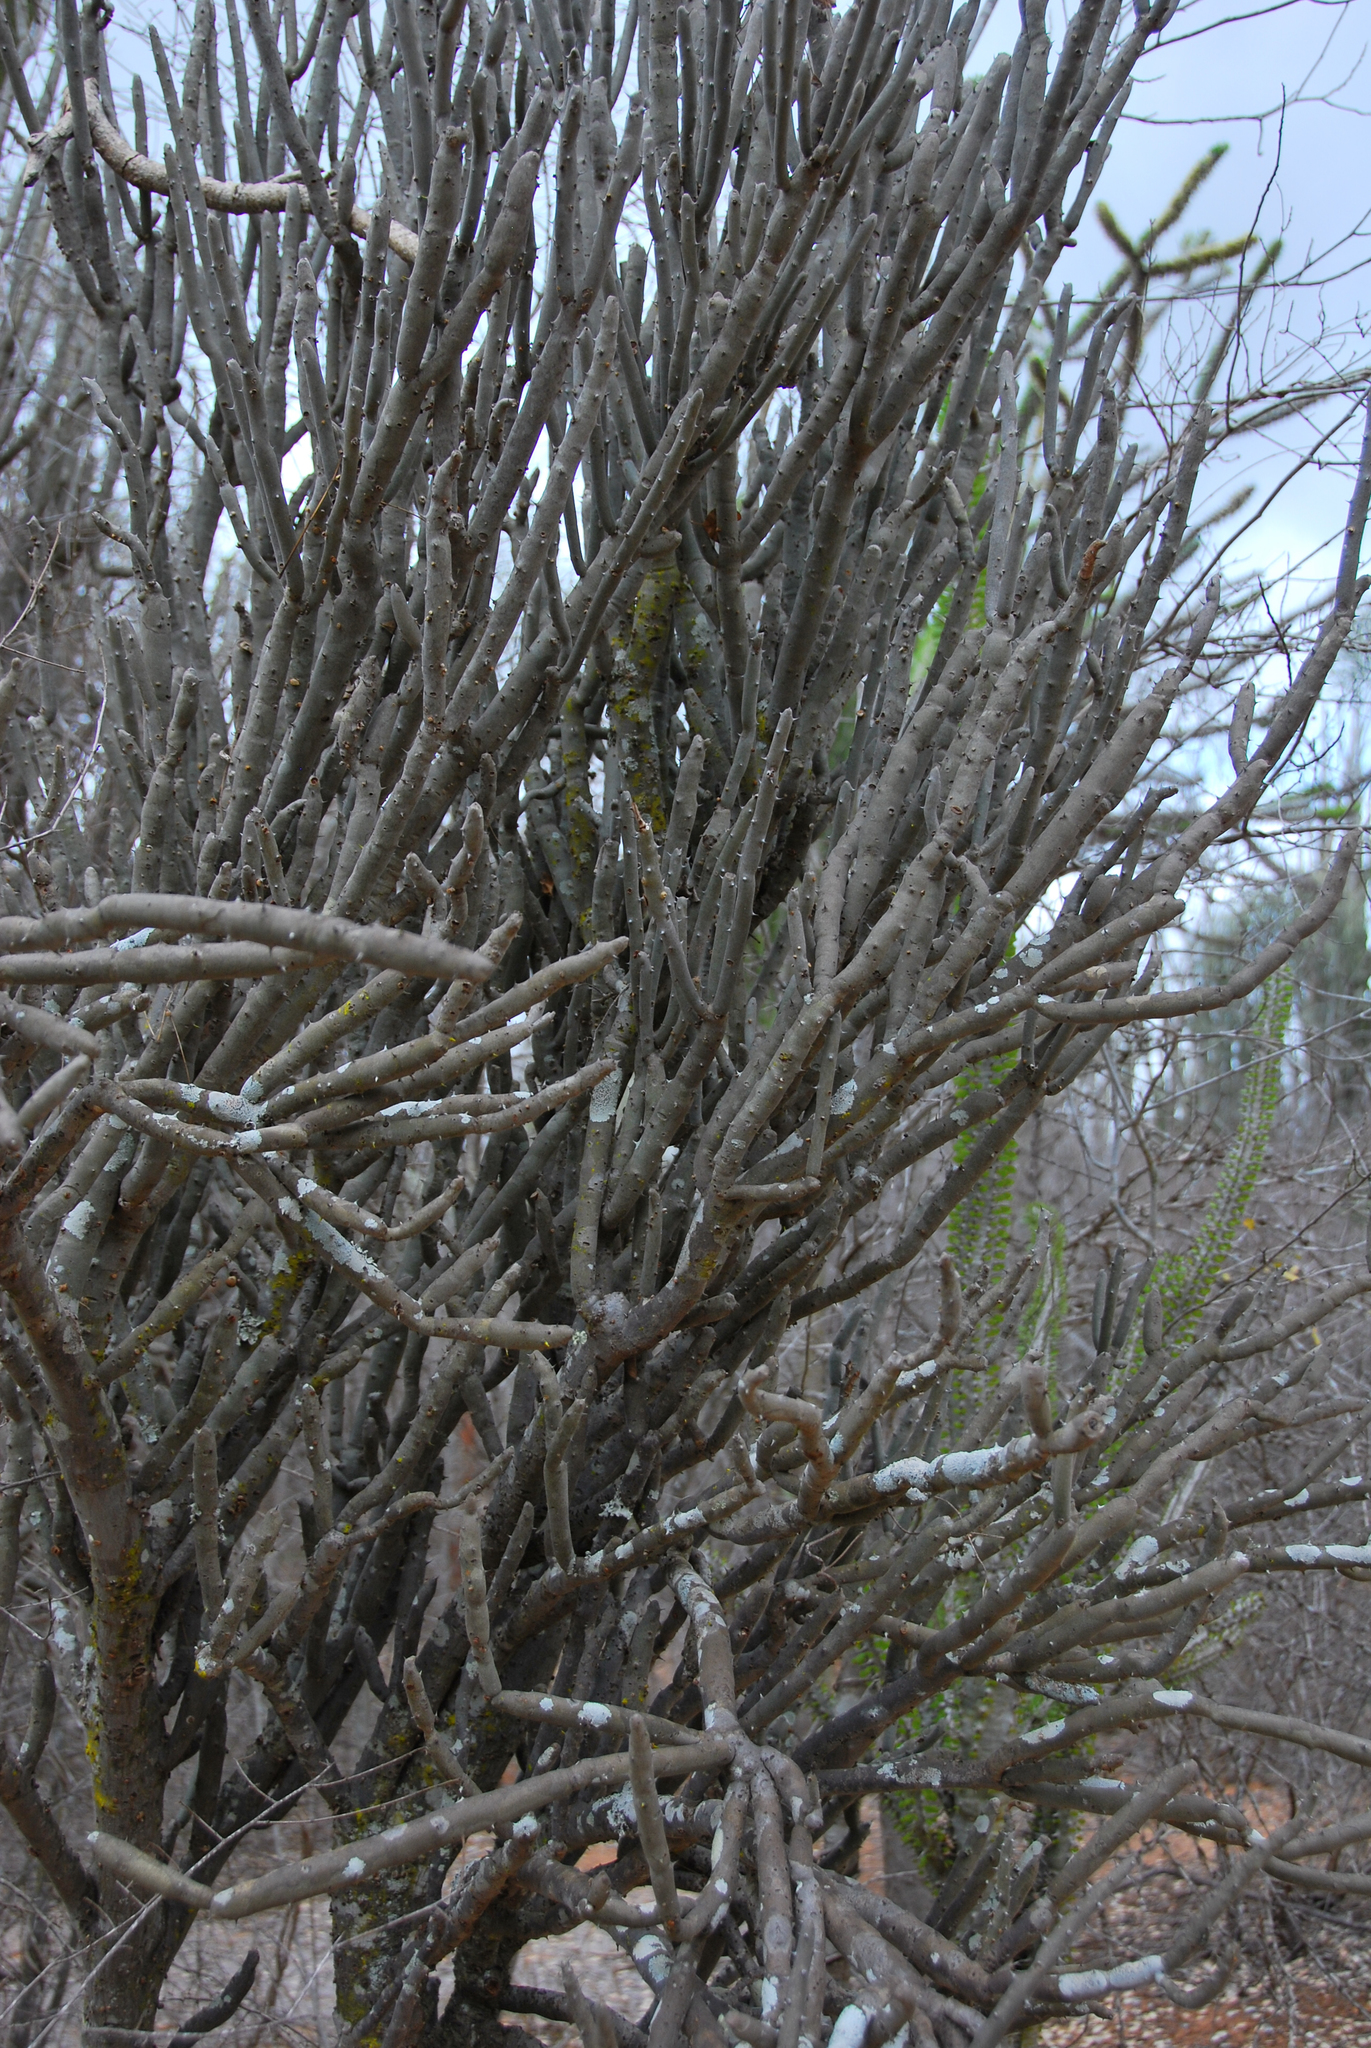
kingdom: Plantae
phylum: Tracheophyta
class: Magnoliopsida
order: Caryophyllales
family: Didiereaceae
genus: Alluaudia
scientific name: Alluaudia dumosa
